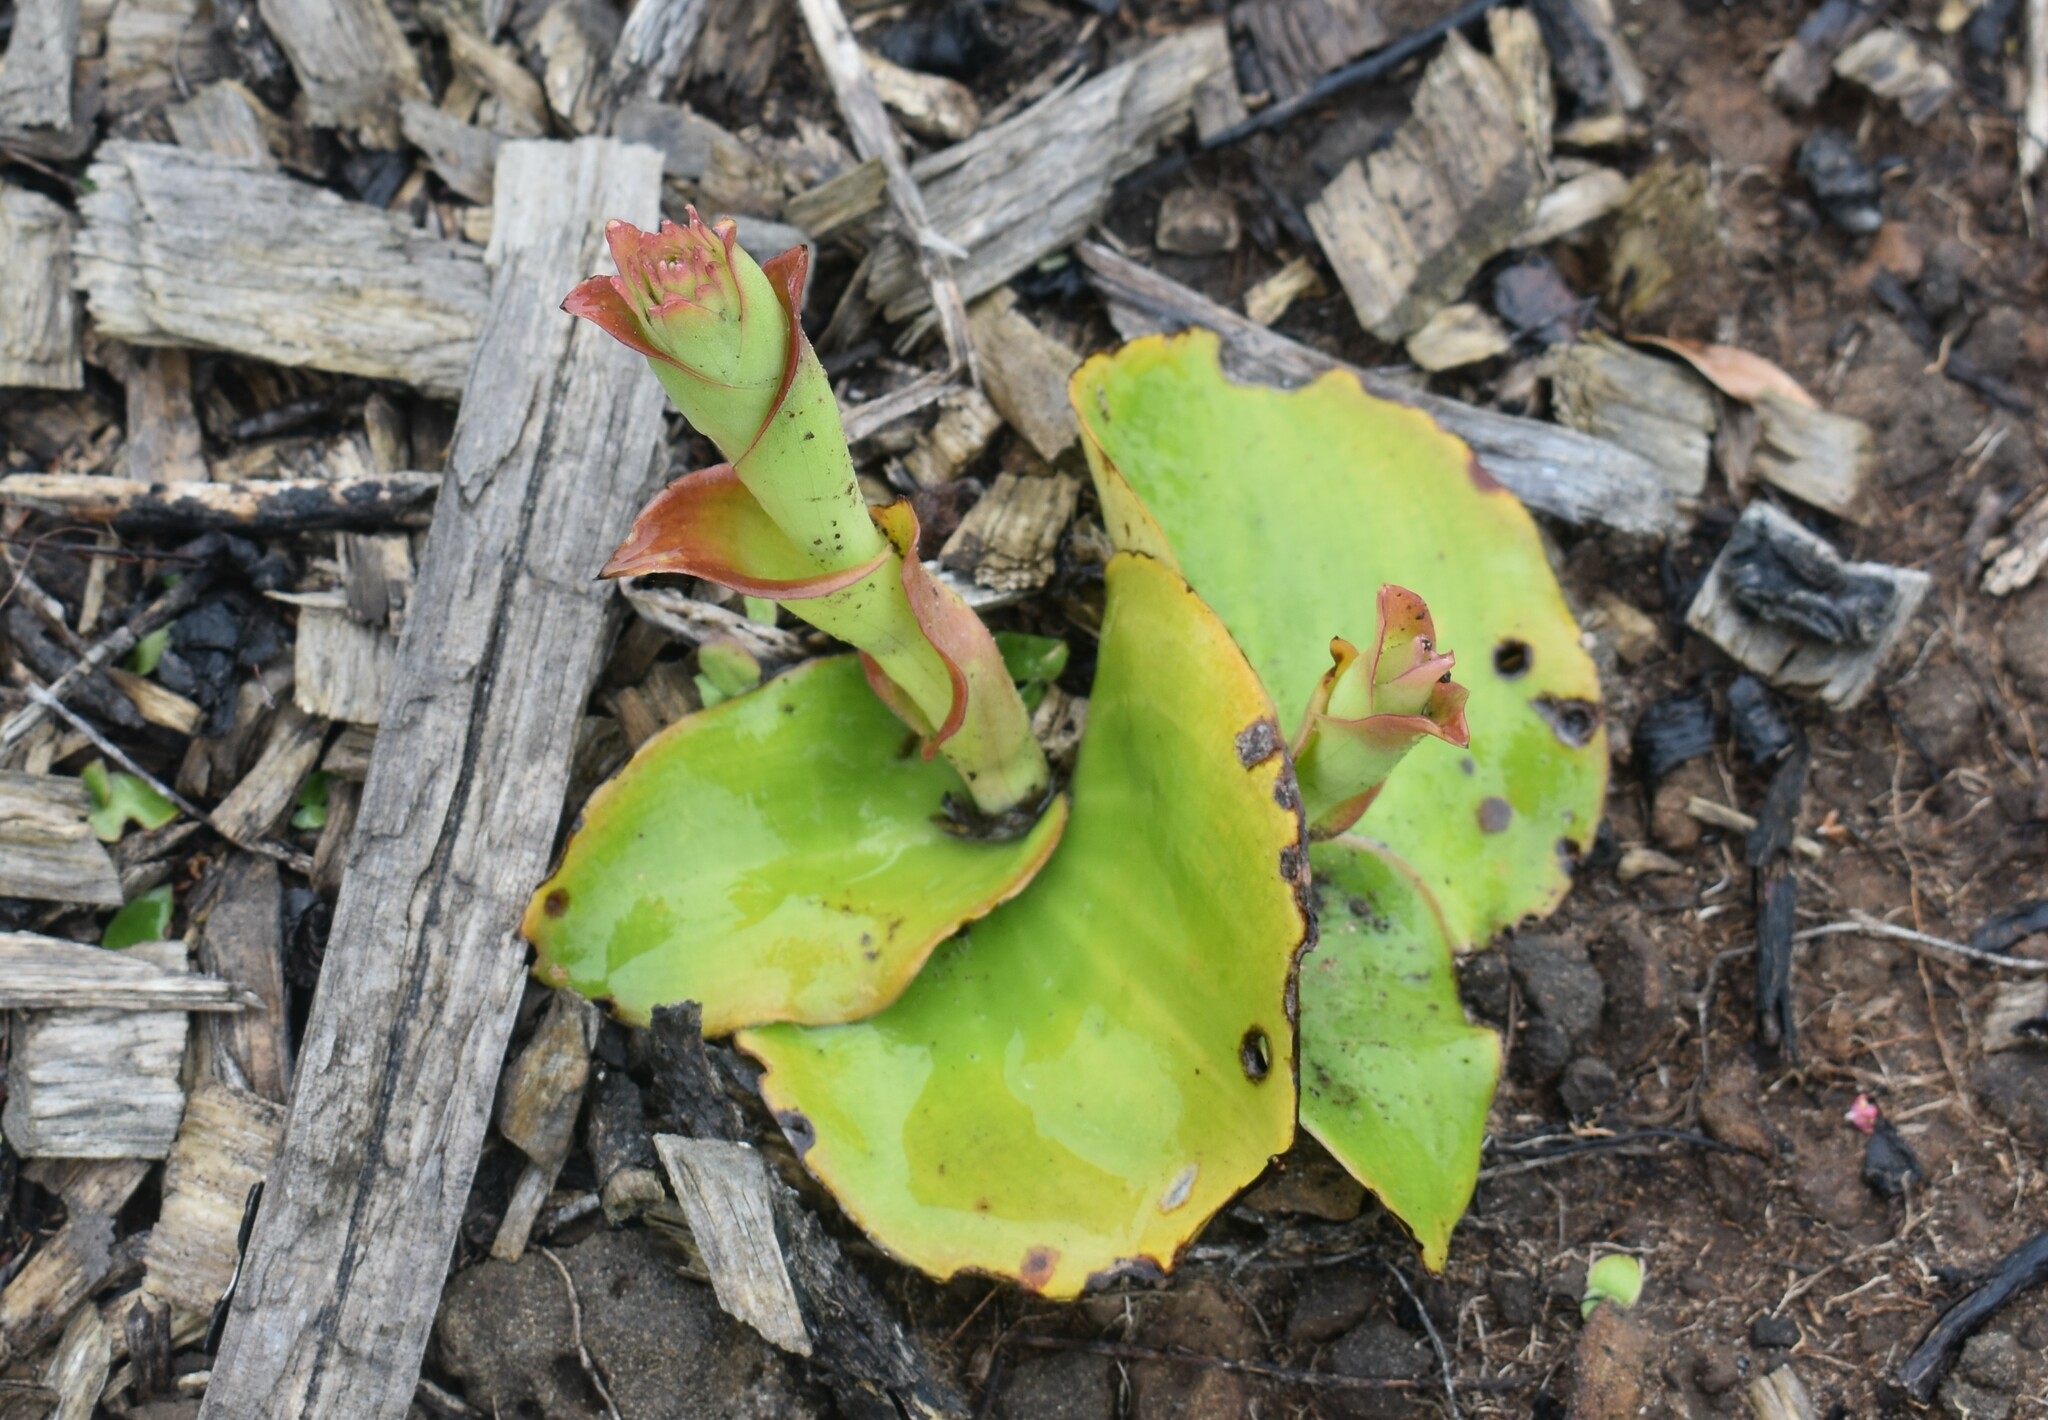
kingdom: Plantae
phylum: Tracheophyta
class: Liliopsida
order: Asparagales
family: Orchidaceae
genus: Satyrium
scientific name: Satyrium acuminatum
